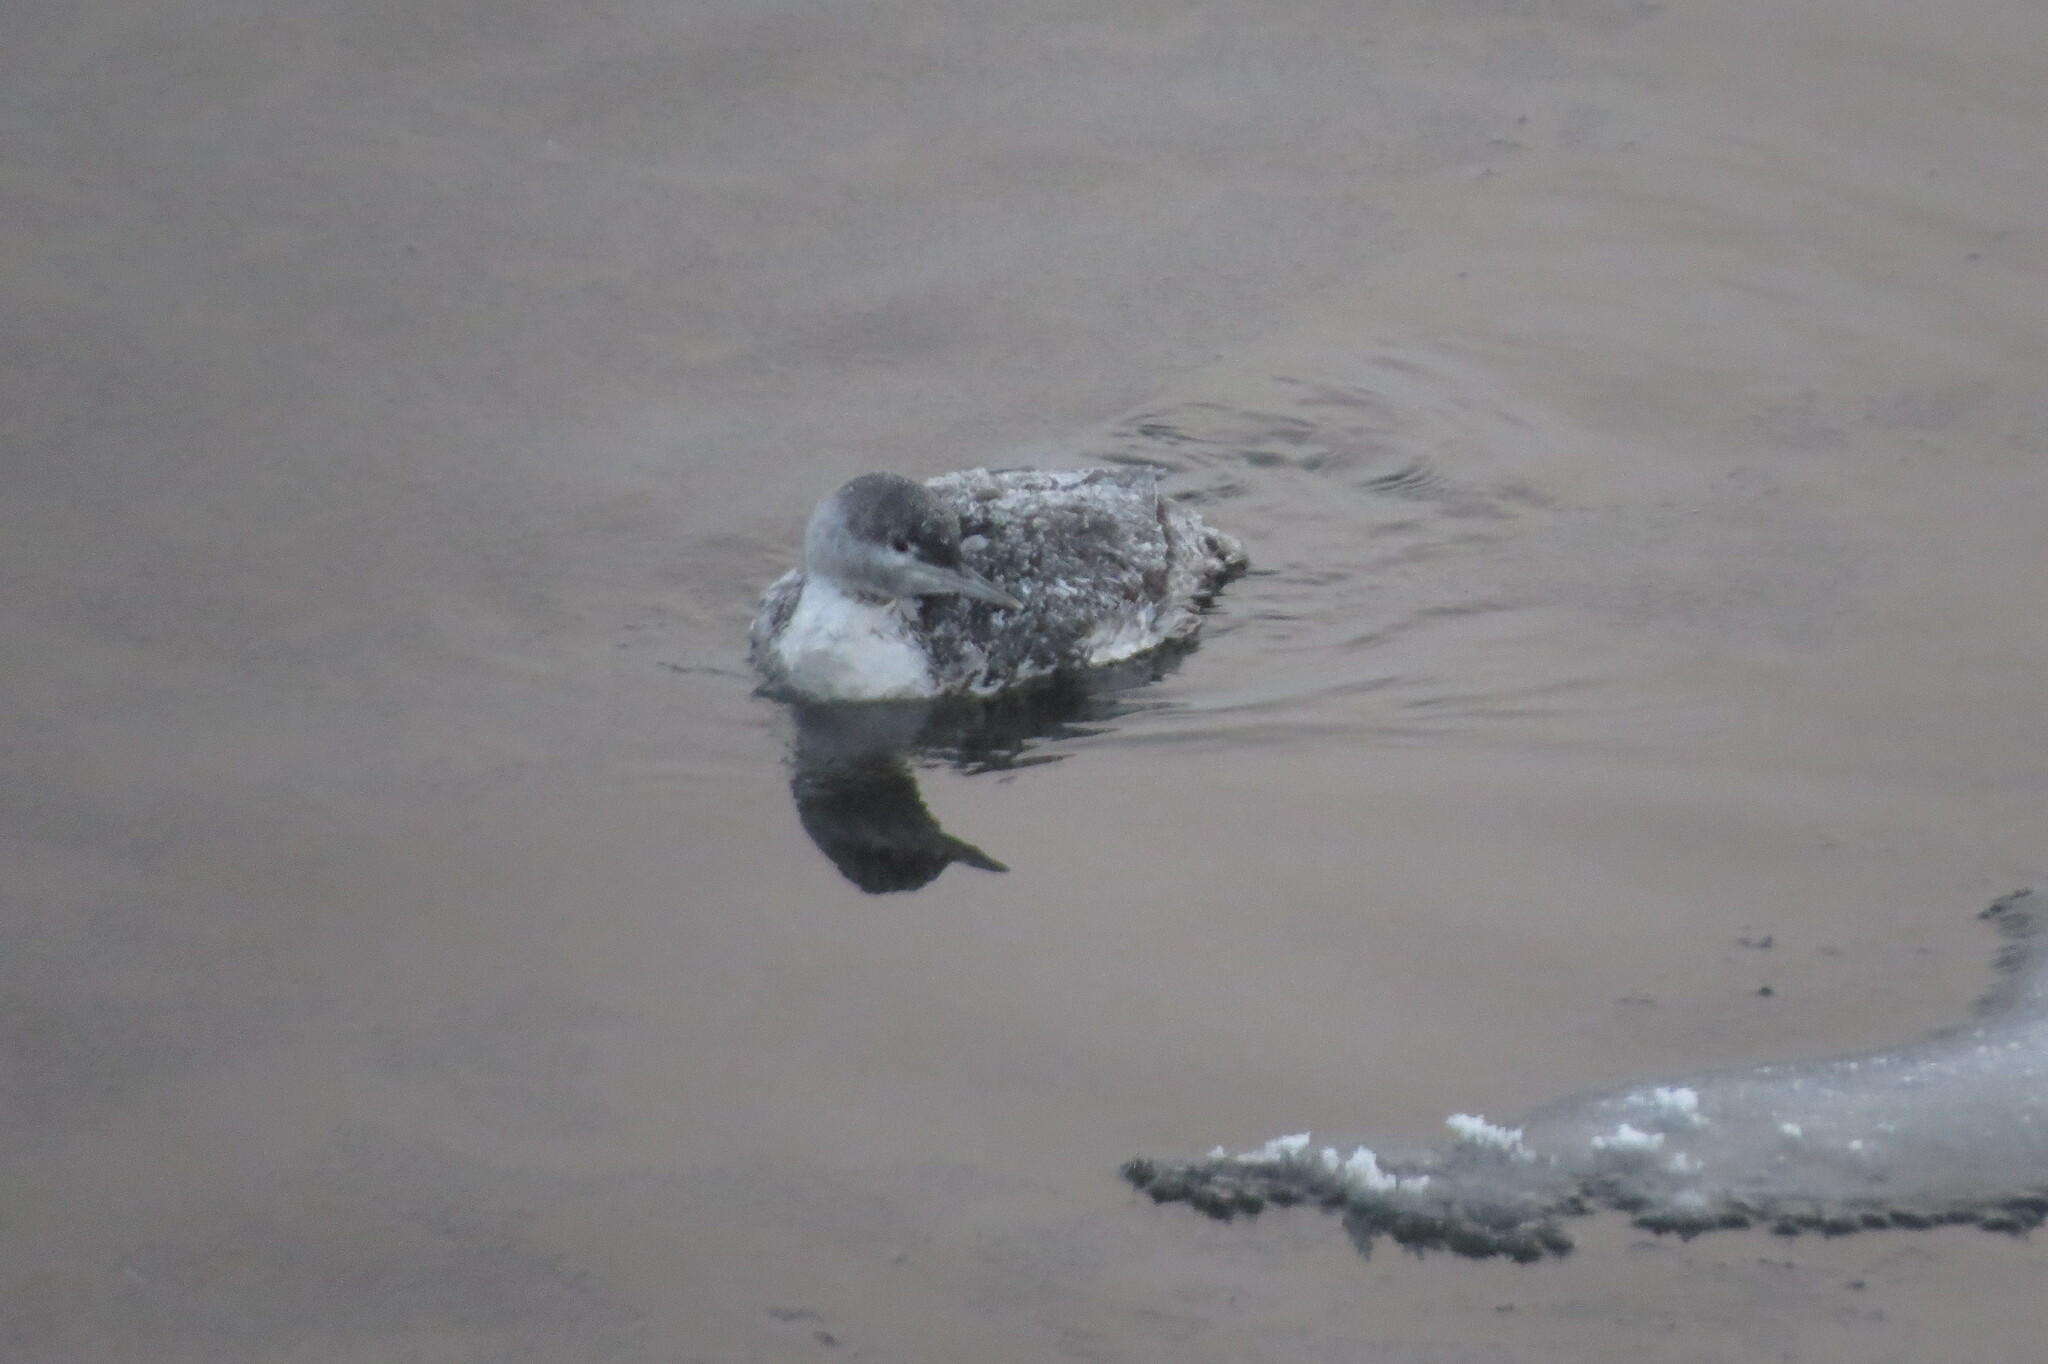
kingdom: Animalia
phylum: Chordata
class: Aves
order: Gaviiformes
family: Gaviidae
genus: Gavia
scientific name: Gavia stellata
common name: Red-throated loon
